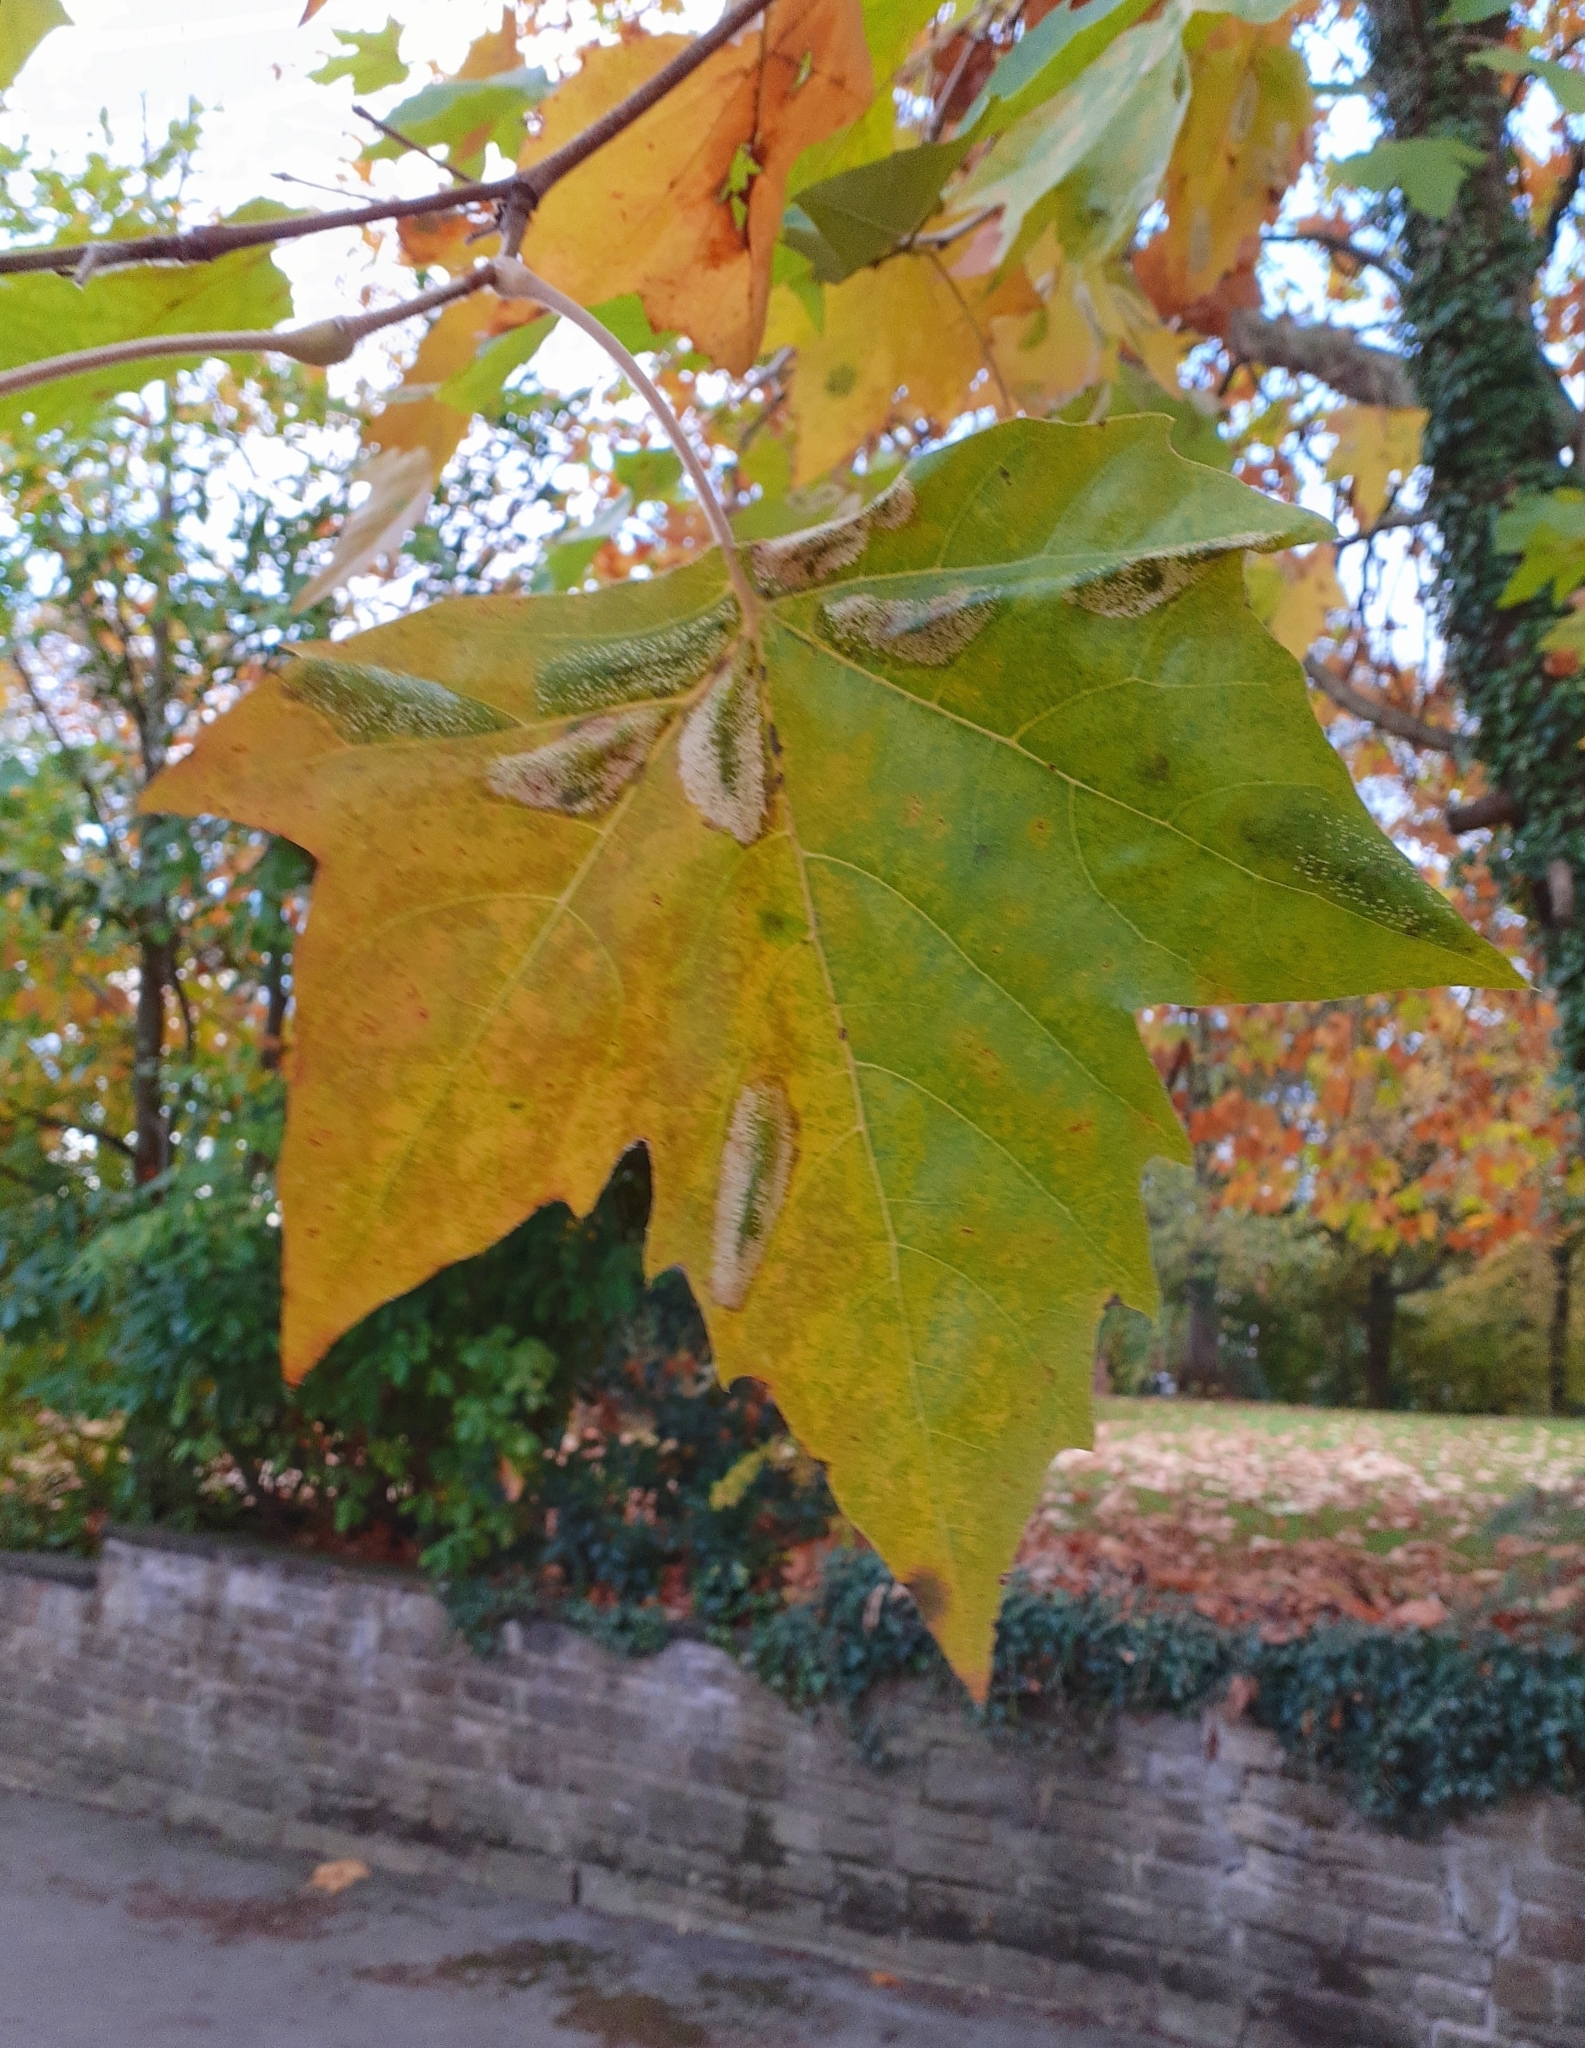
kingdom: Animalia
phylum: Arthropoda
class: Insecta
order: Lepidoptera
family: Gracillariidae
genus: Phyllonorycter
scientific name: Phyllonorycter platani
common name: London midget
